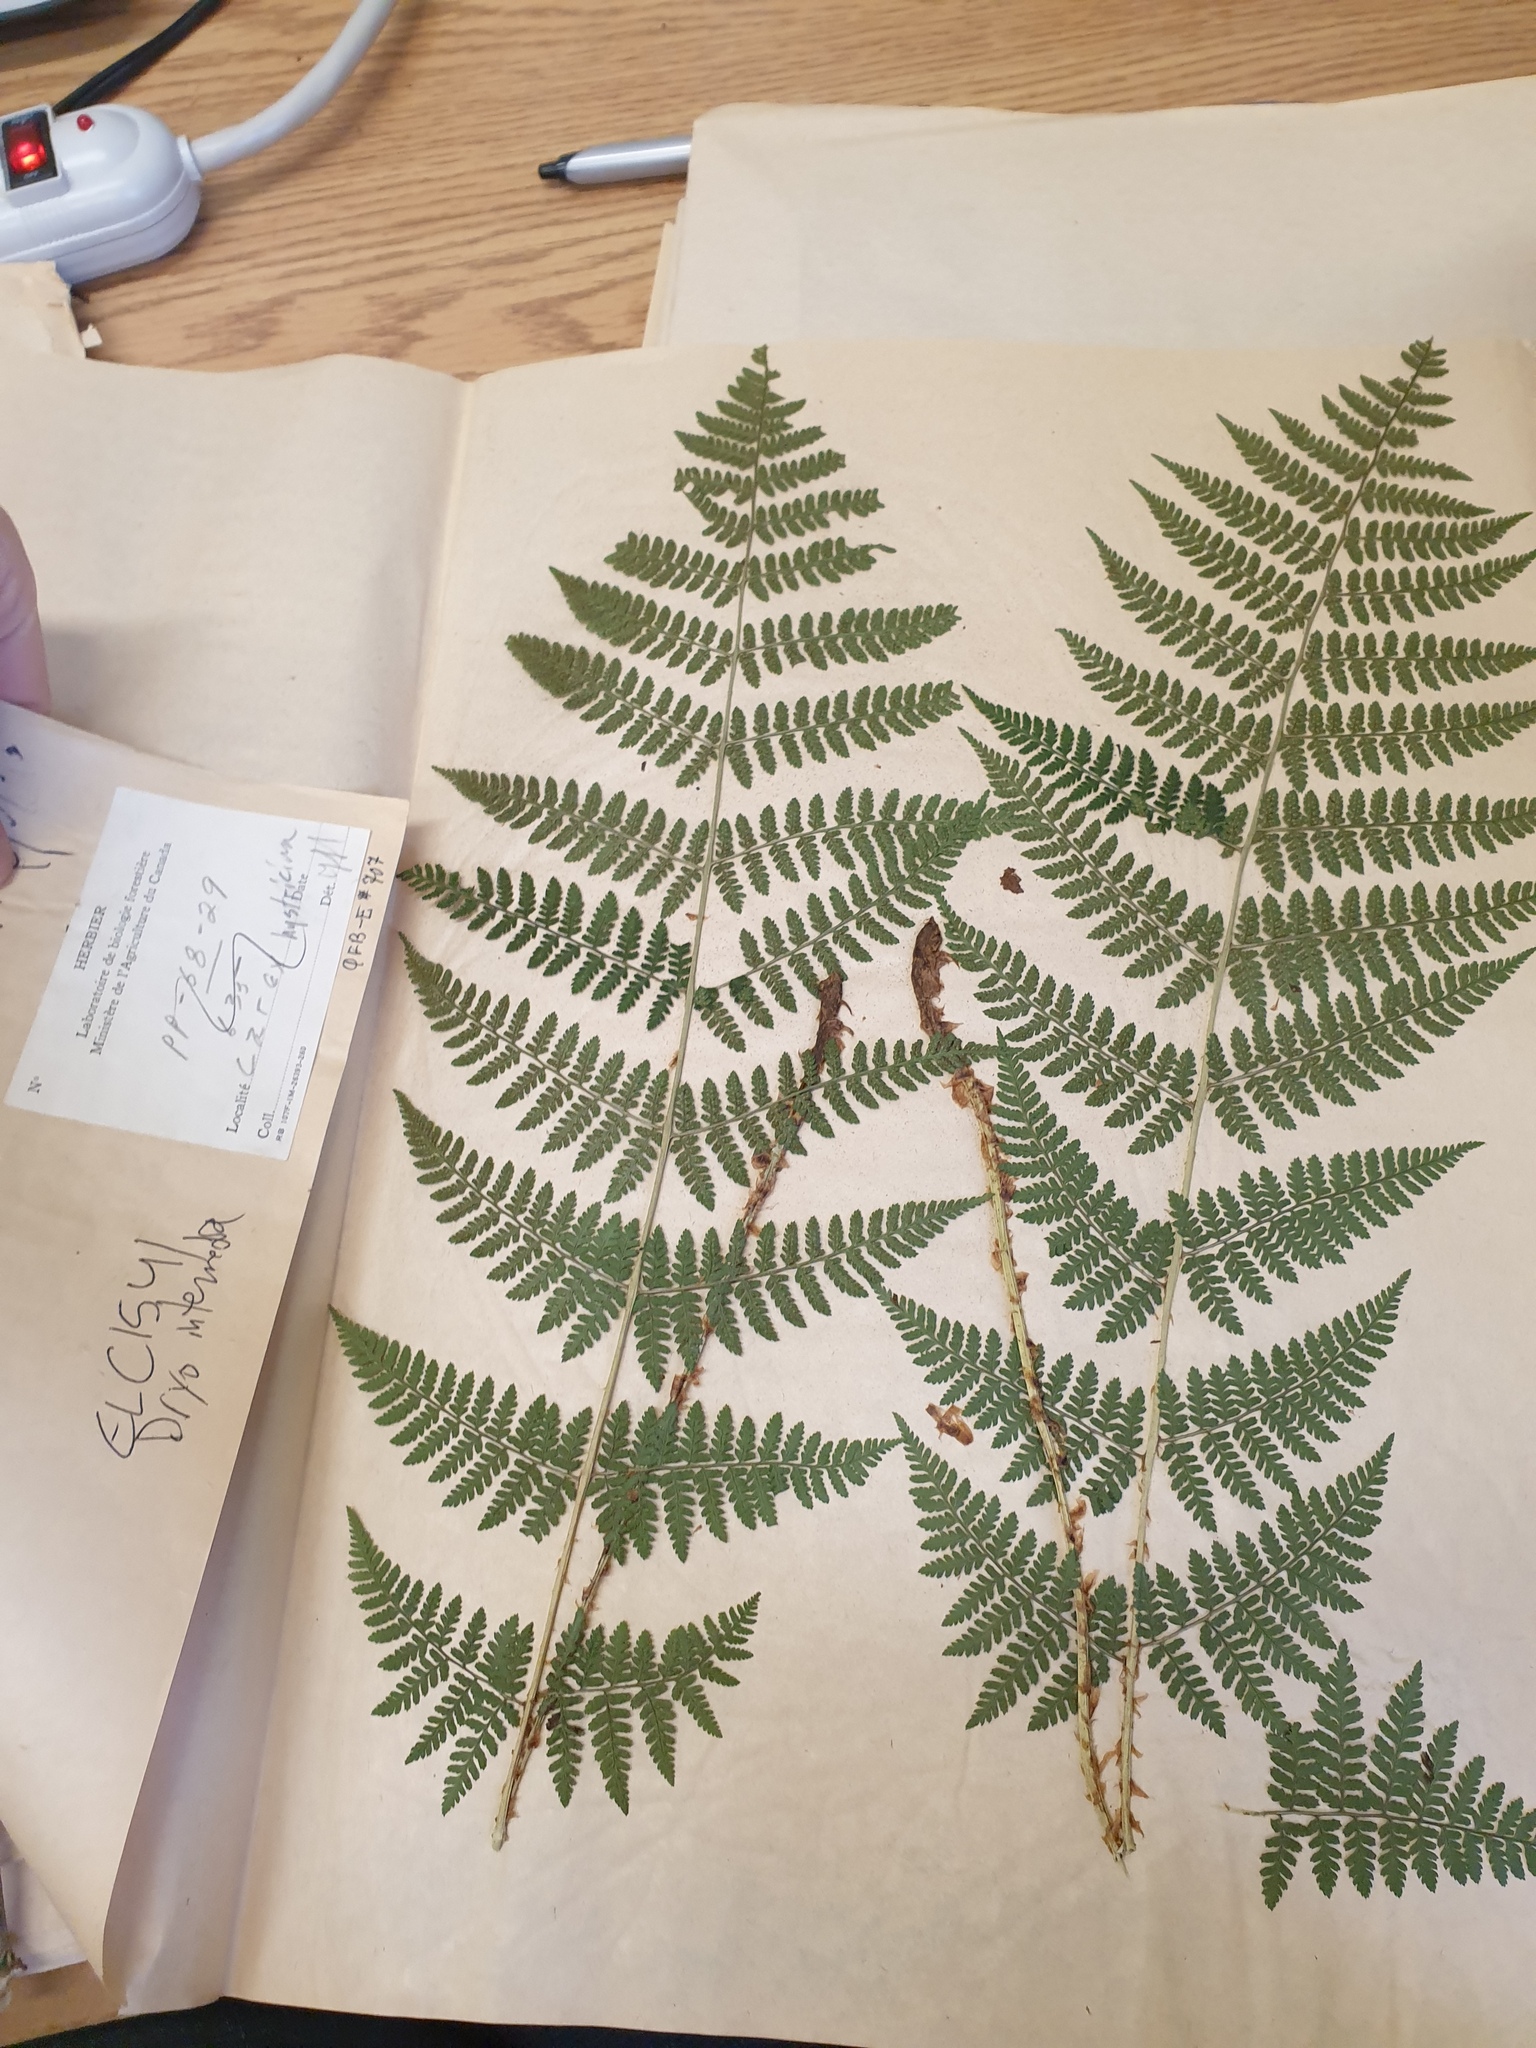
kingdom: Plantae
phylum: Tracheophyta
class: Polypodiopsida
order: Polypodiales
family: Dryopteridaceae
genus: Dryopteris
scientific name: Dryopteris intermedia
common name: Evergreen wood fern
